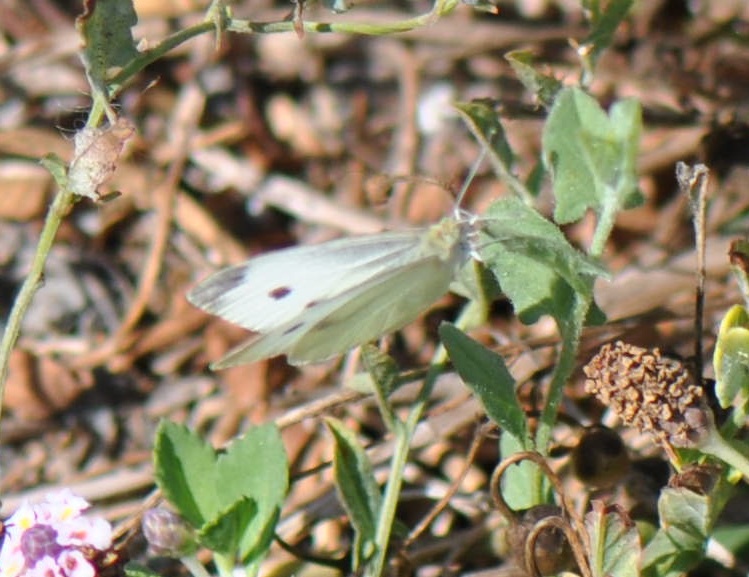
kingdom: Animalia
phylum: Arthropoda
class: Insecta
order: Lepidoptera
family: Pieridae
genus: Pieris
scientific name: Pieris rapae
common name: Small white
